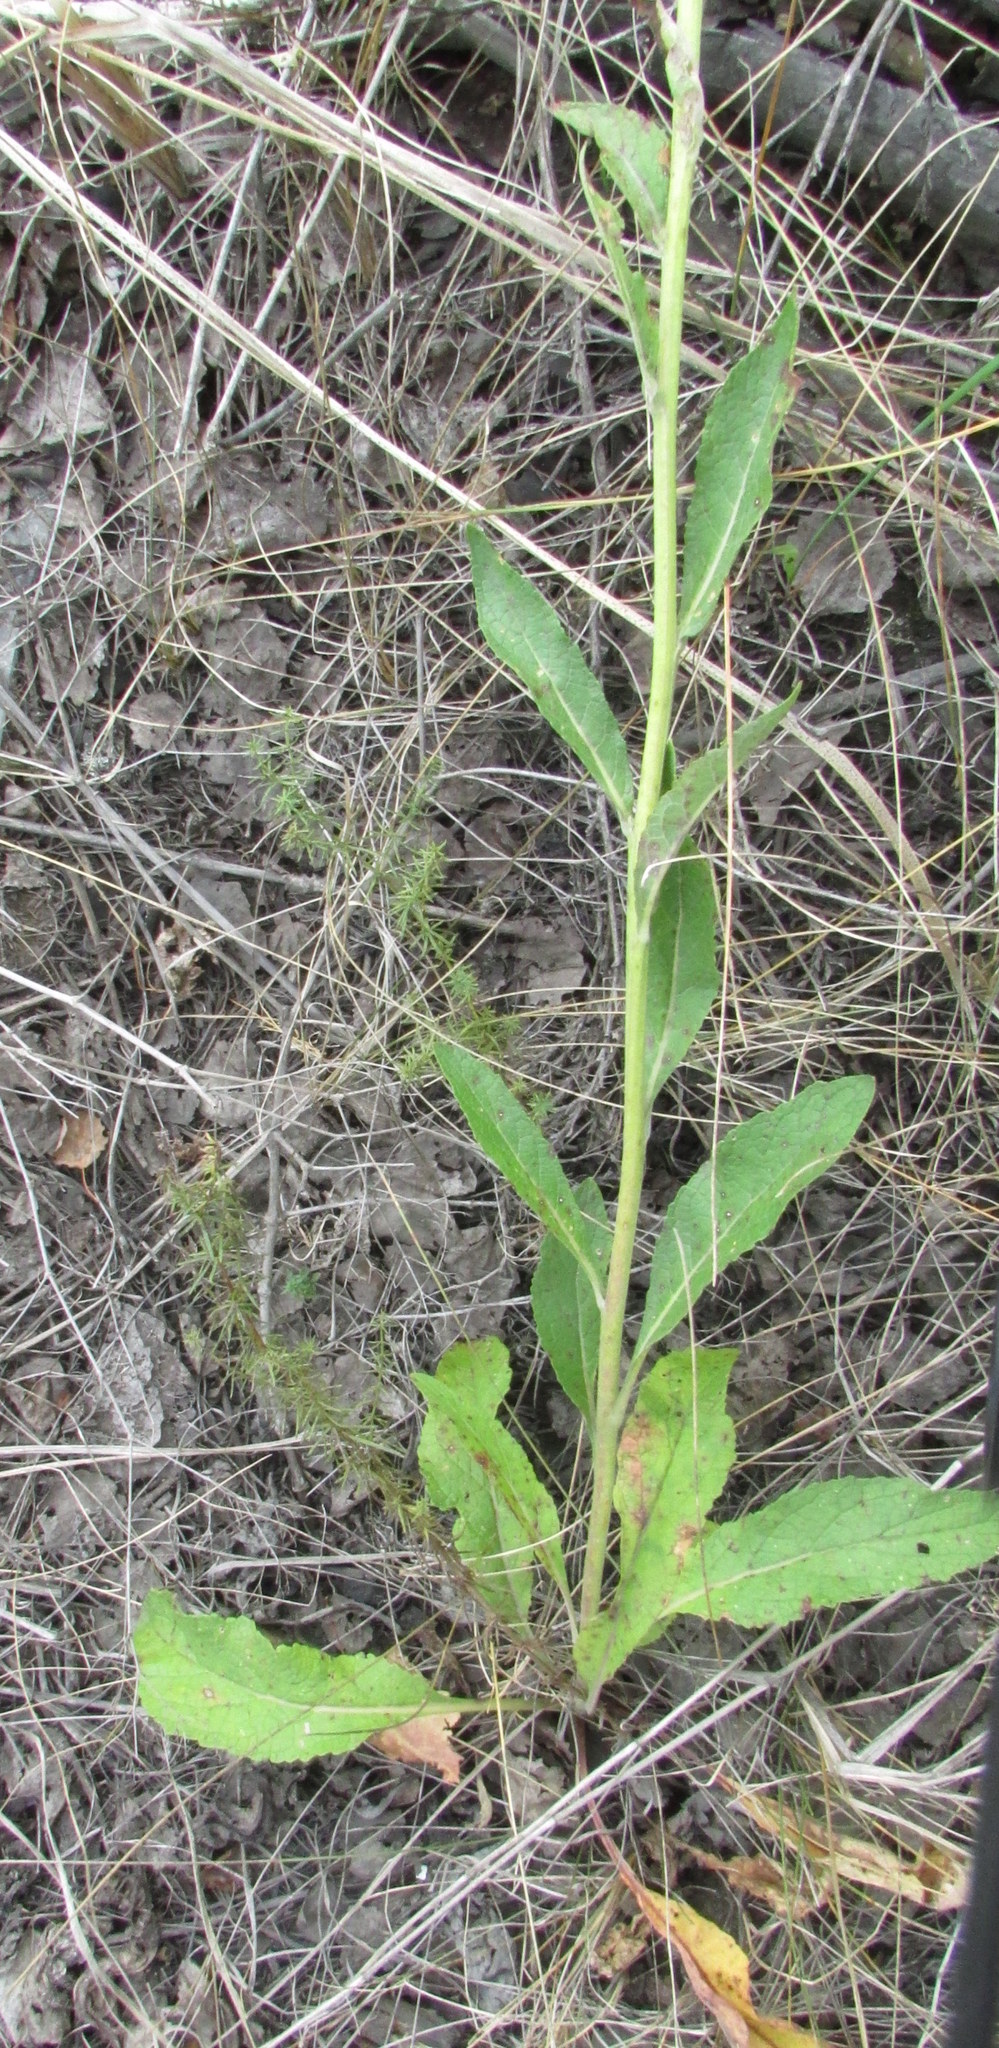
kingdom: Plantae
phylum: Tracheophyta
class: Magnoliopsida
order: Lamiales
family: Scrophulariaceae
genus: Verbascum
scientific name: Verbascum lychnitis
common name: White mullein
